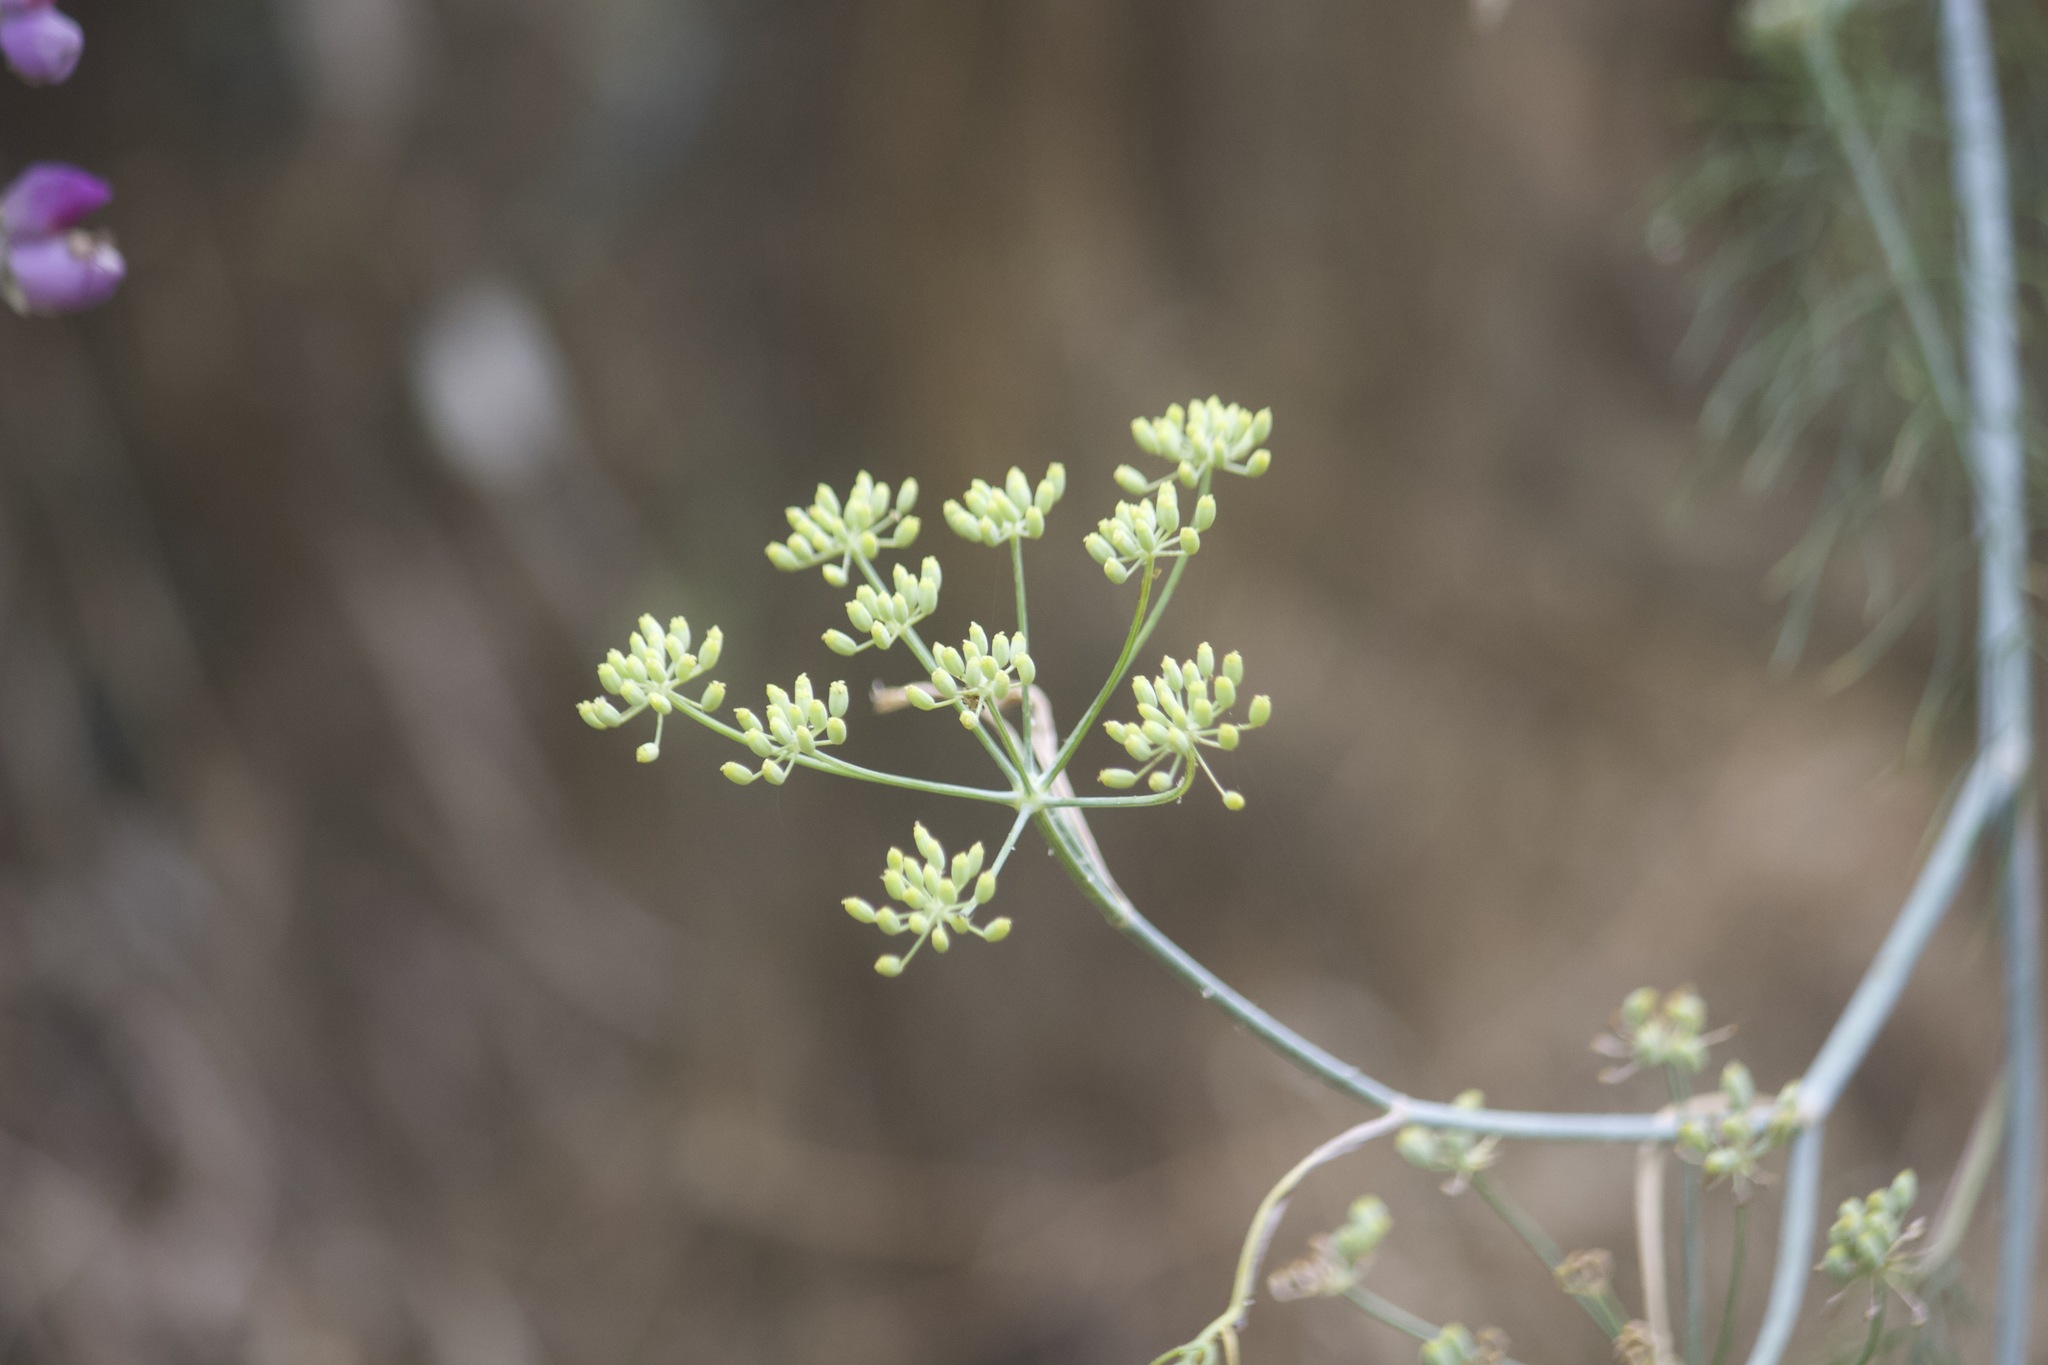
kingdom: Plantae
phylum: Tracheophyta
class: Magnoliopsida
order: Apiales
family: Apiaceae
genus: Foeniculum
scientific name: Foeniculum vulgare
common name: Fennel
